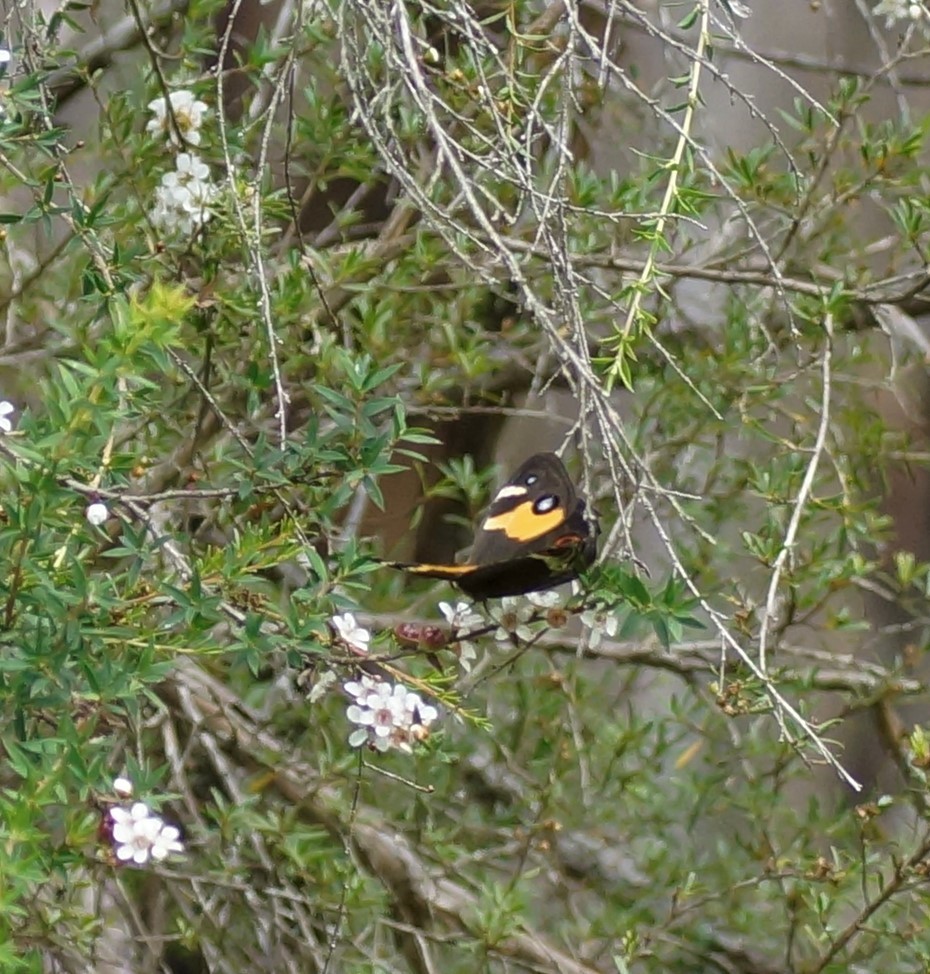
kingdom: Animalia
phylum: Arthropoda
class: Insecta
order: Lepidoptera
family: Nymphalidae
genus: Tisiphone
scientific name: Tisiphone abeona
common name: Swordgrass brown
